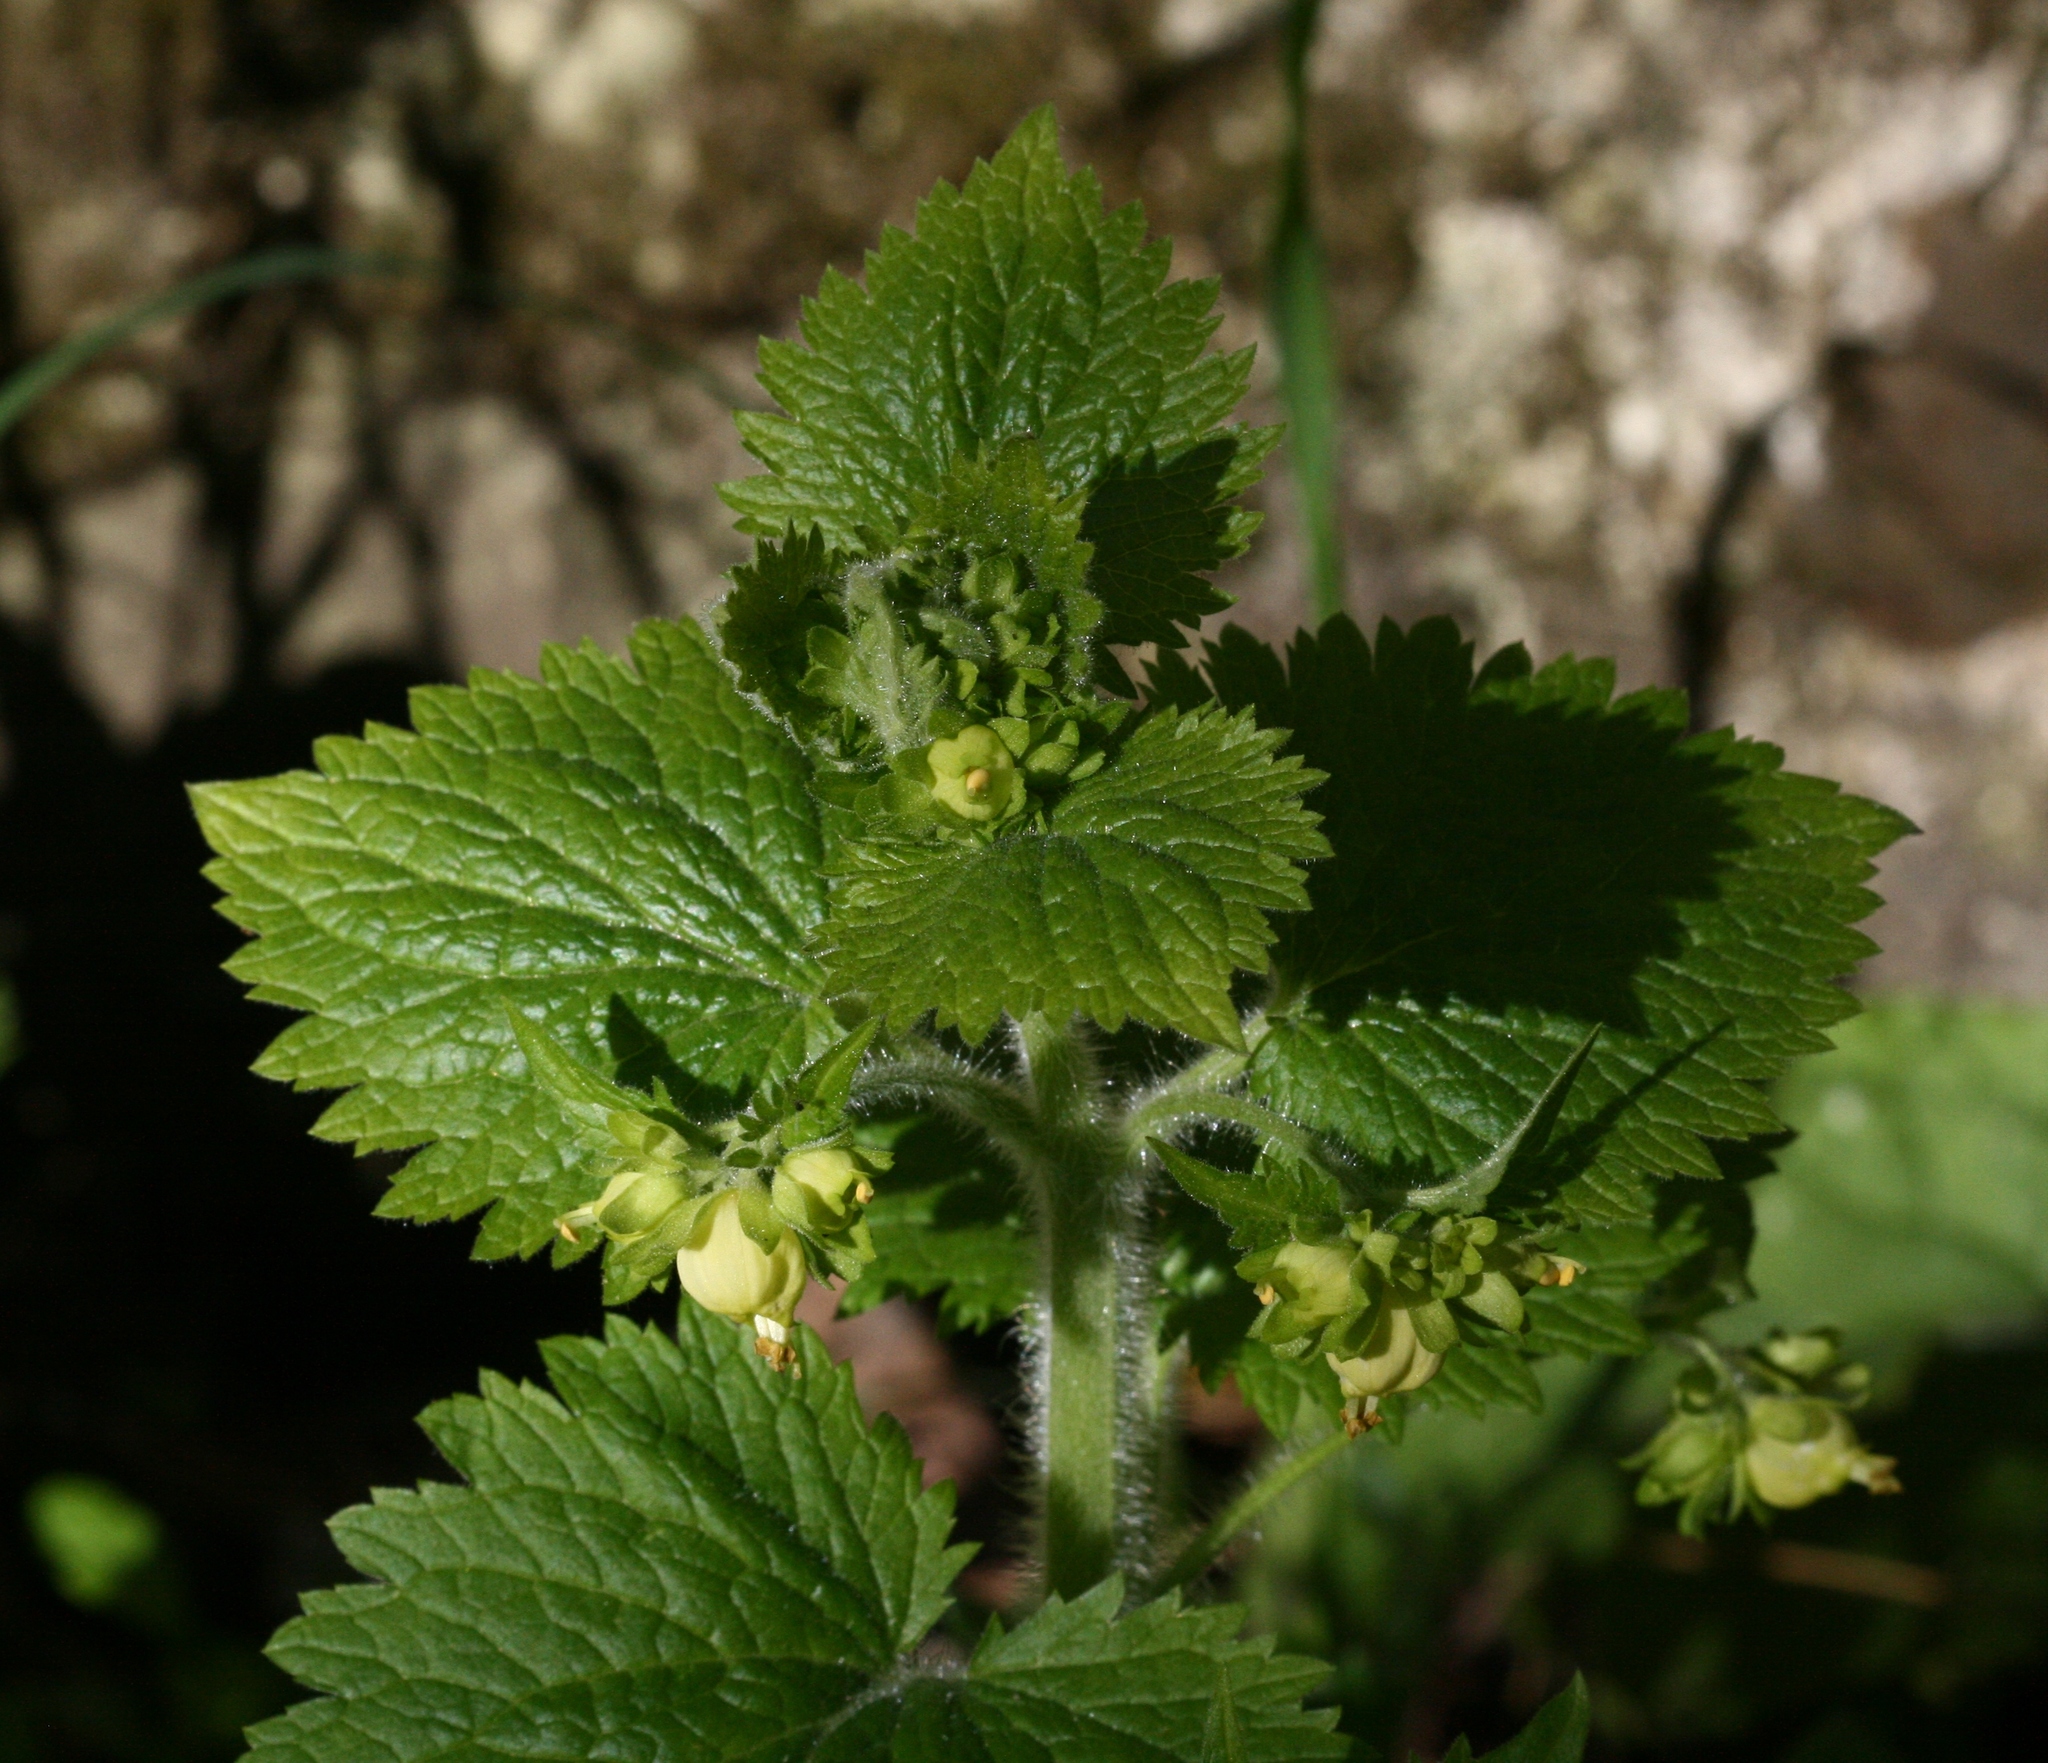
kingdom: Plantae
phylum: Tracheophyta
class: Magnoliopsida
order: Lamiales
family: Scrophulariaceae
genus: Scrophularia
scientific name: Scrophularia vernalis
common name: Yellow figwort
